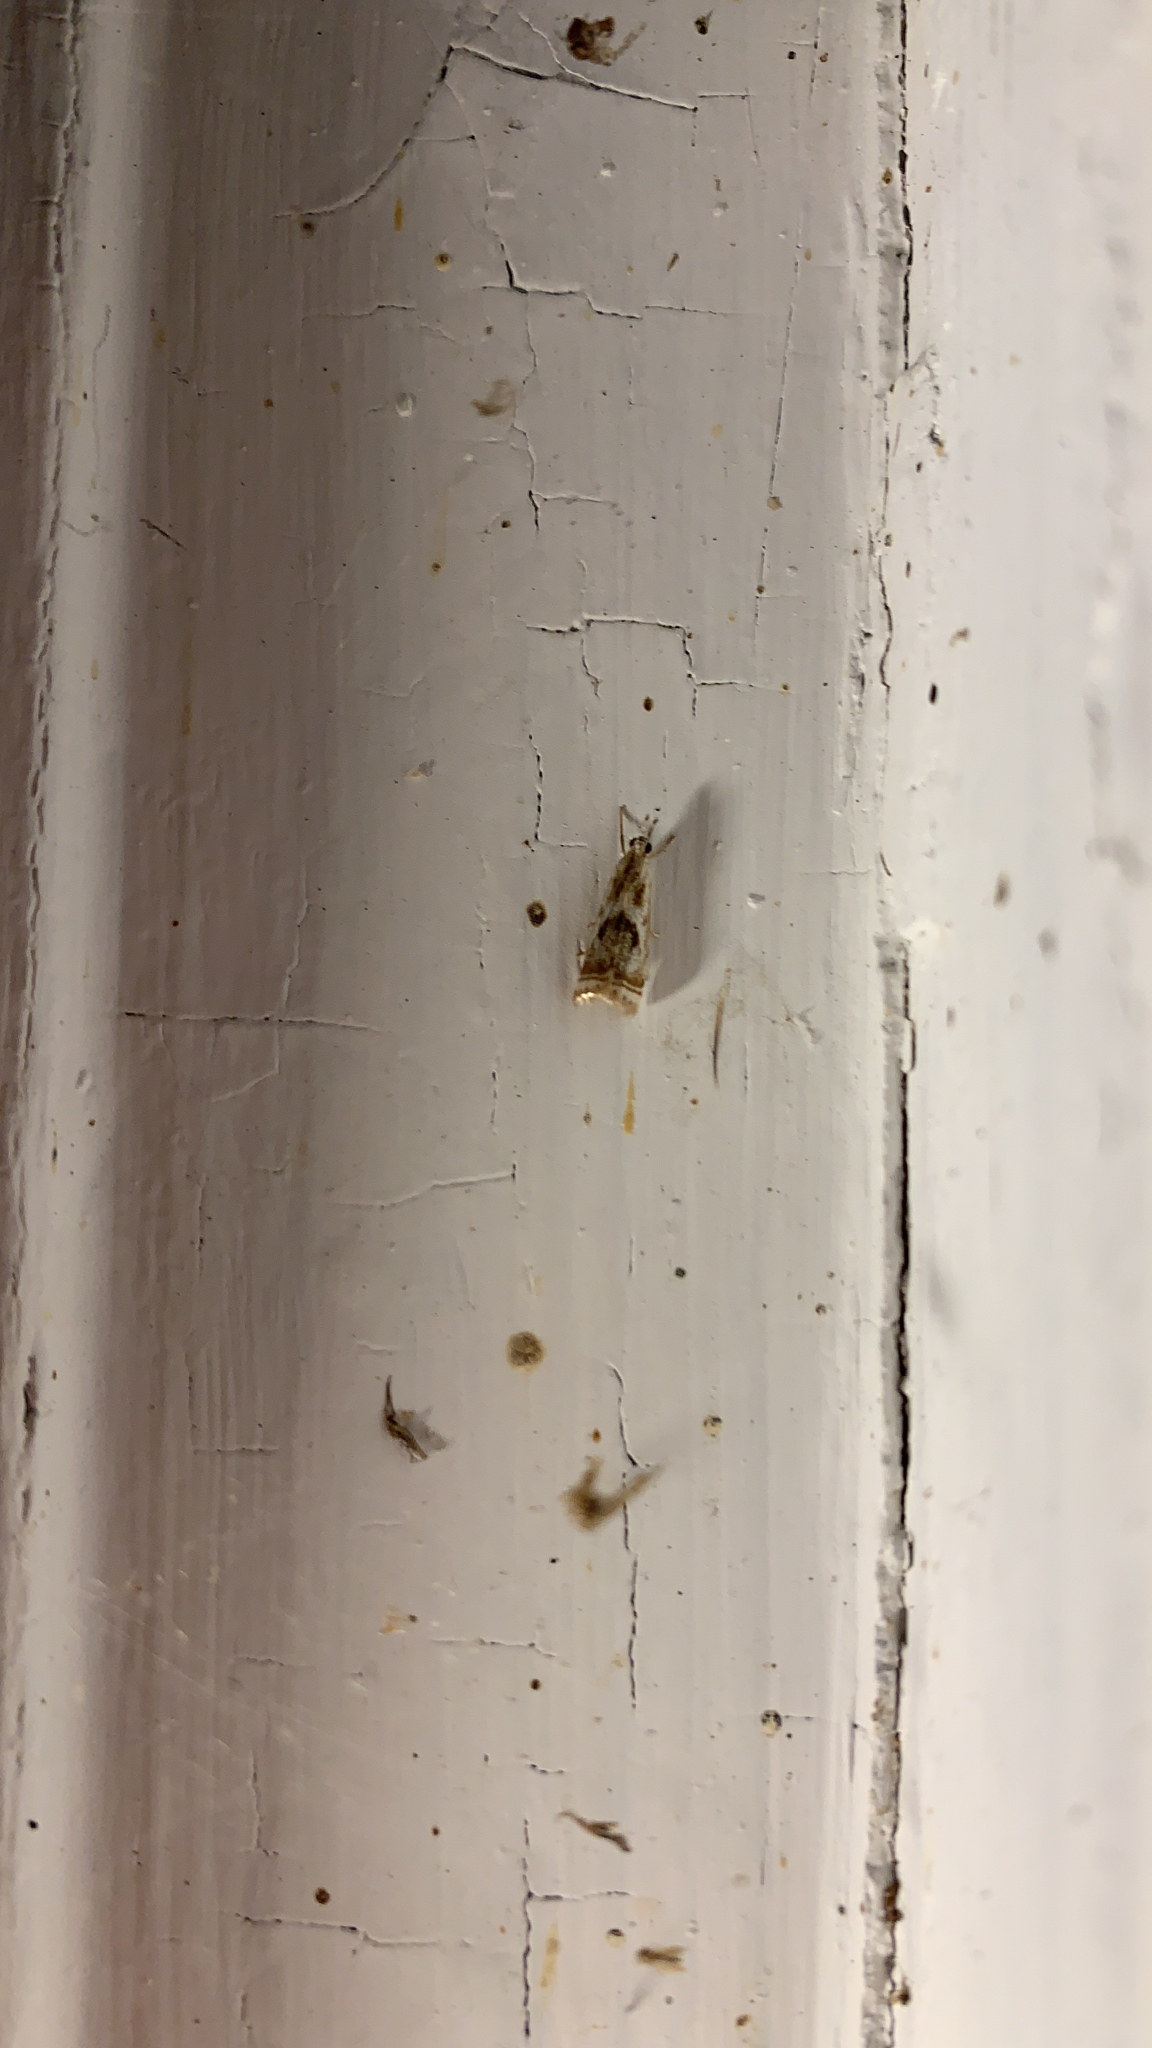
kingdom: Animalia
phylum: Arthropoda
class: Insecta
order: Lepidoptera
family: Crambidae
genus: Microcrambus
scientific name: Microcrambus elegans
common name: Elegant grass-veneer
